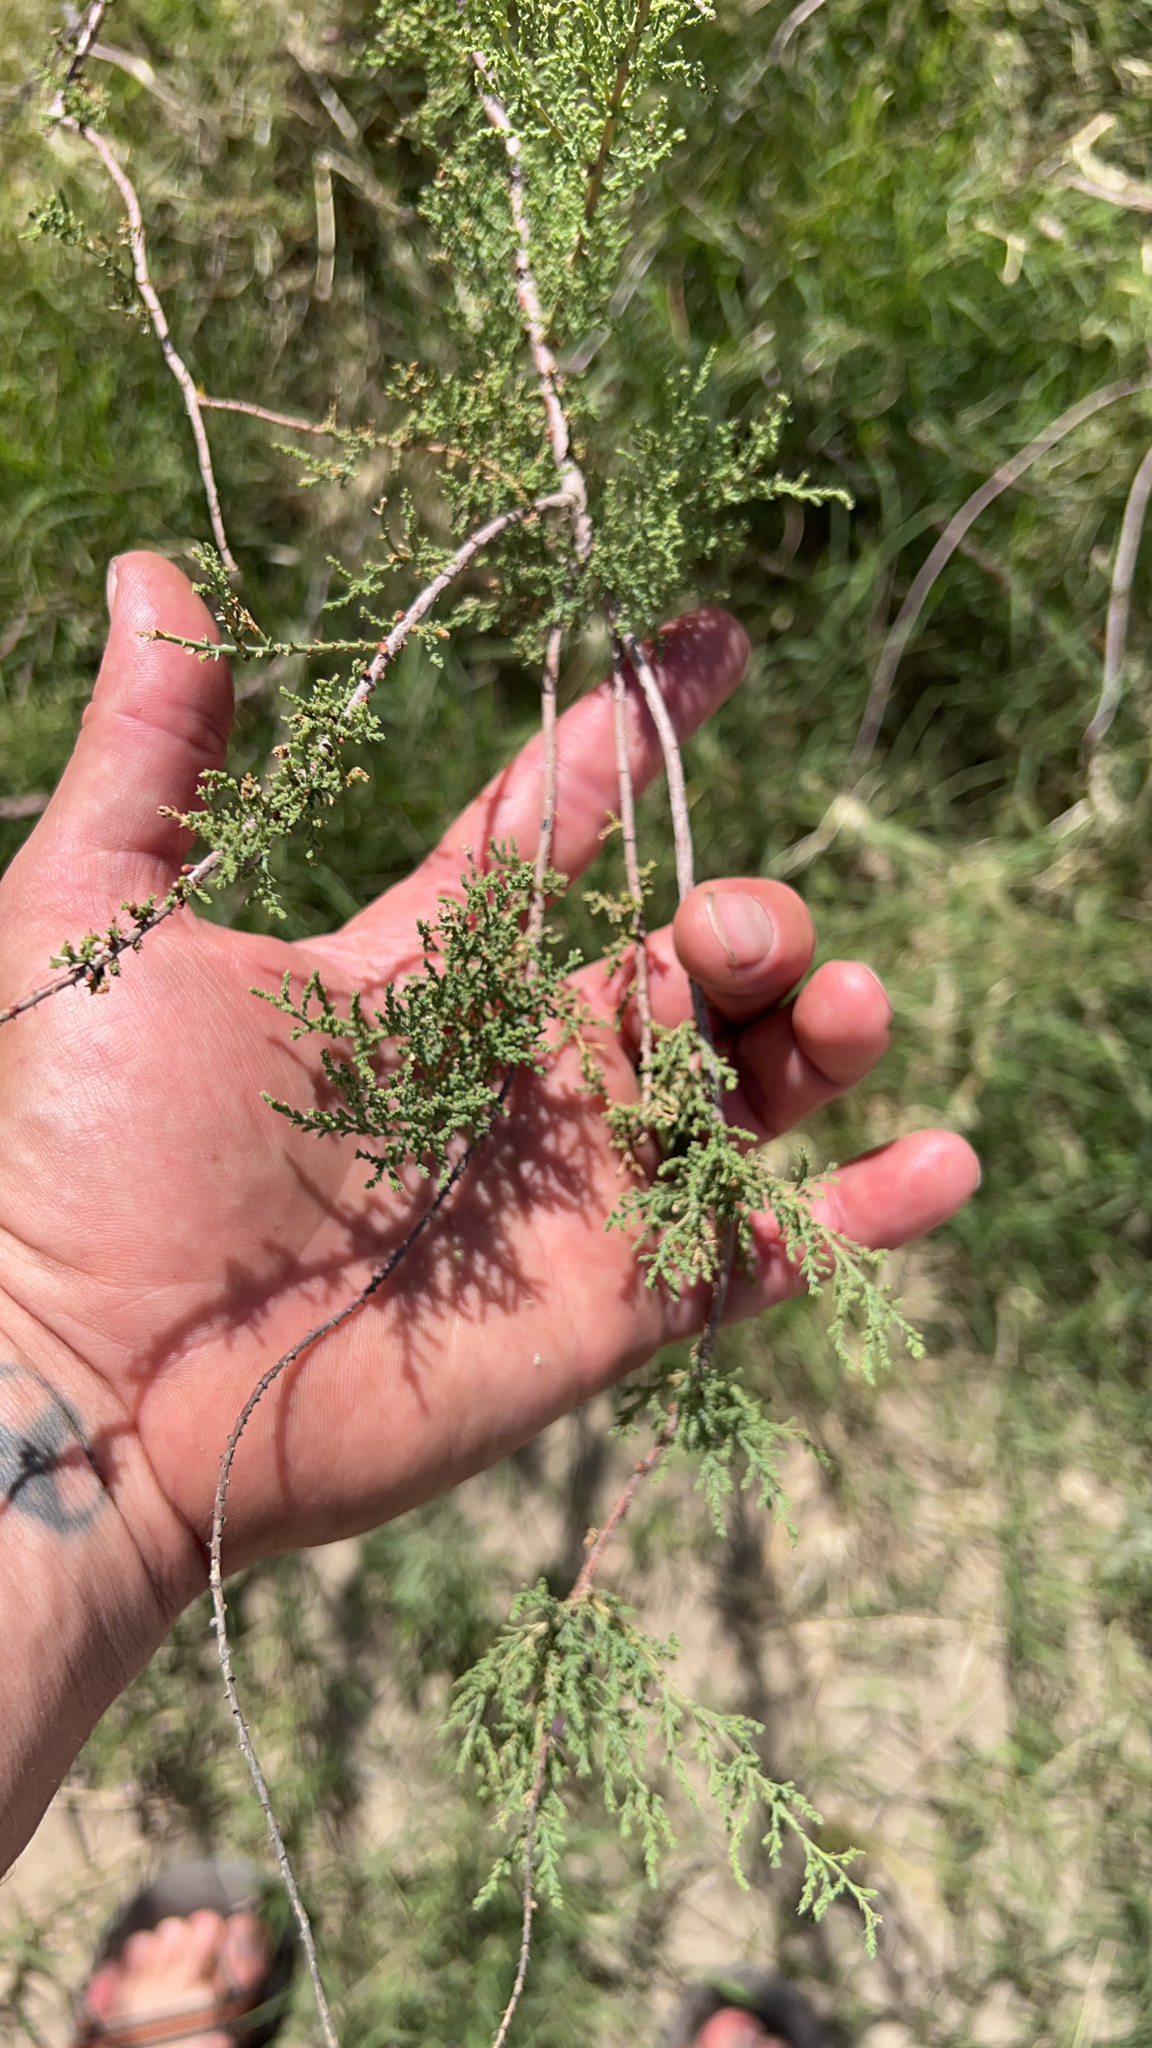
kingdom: Plantae
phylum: Tracheophyta
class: Magnoliopsida
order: Caryophyllales
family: Tamaricaceae
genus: Tamarix
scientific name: Tamarix ramosissima
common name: Pink tamarisk
